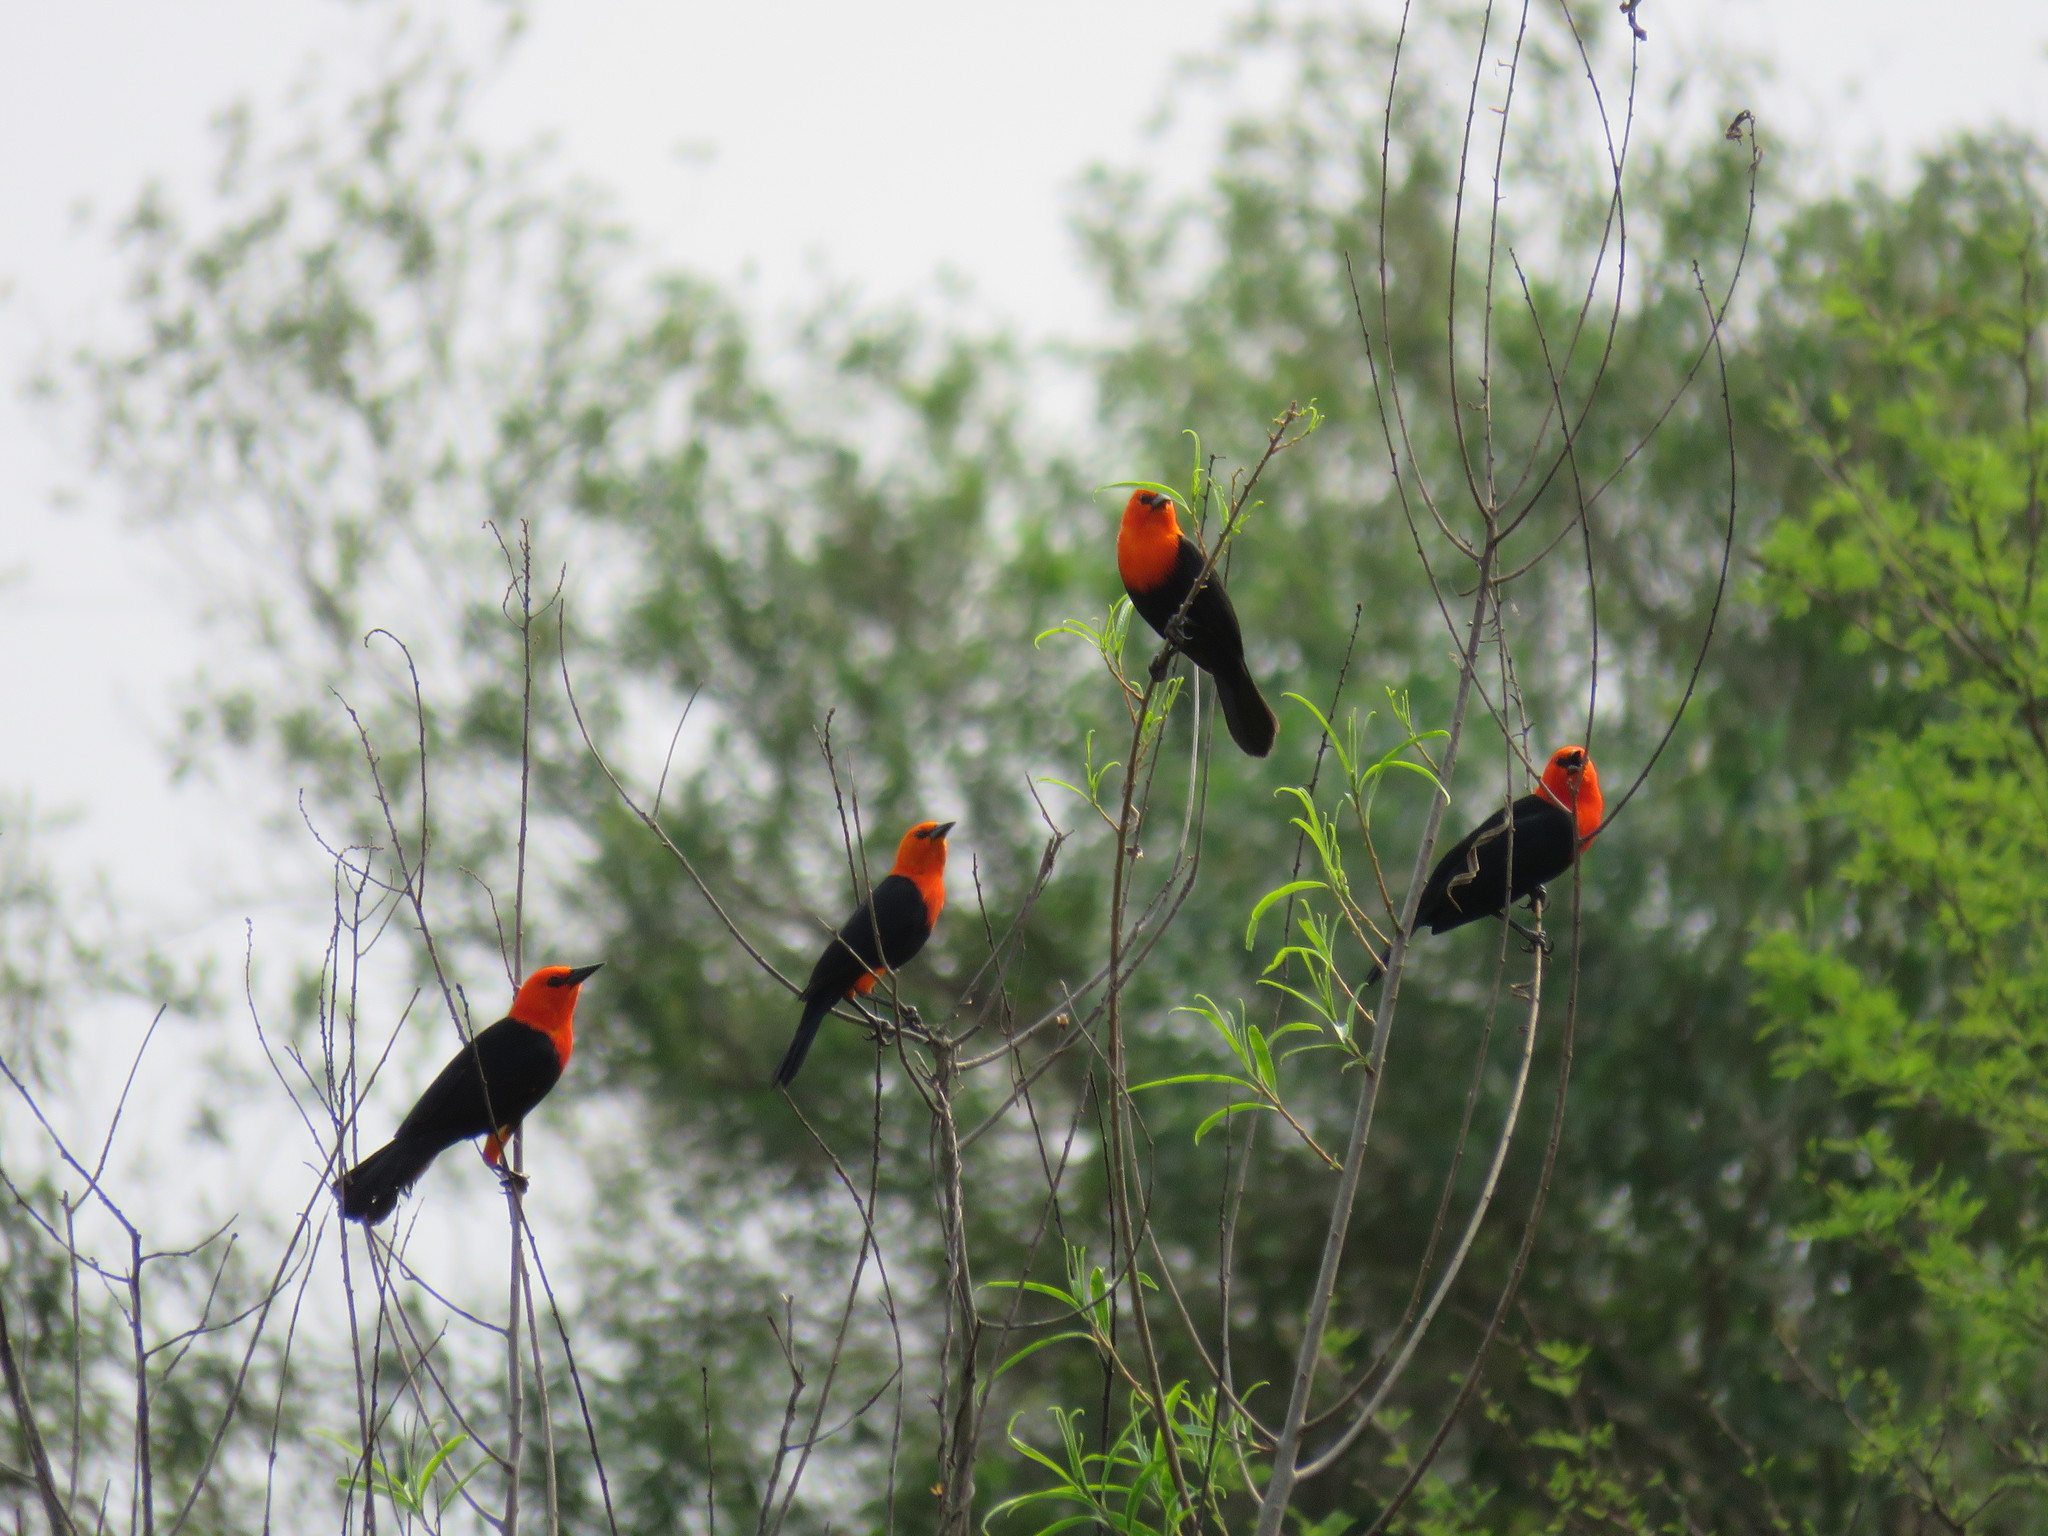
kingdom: Animalia
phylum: Chordata
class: Aves
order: Passeriformes
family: Icteridae
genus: Amblyramphus
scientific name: Amblyramphus holosericeus
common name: Scarlet-headed blackbird
